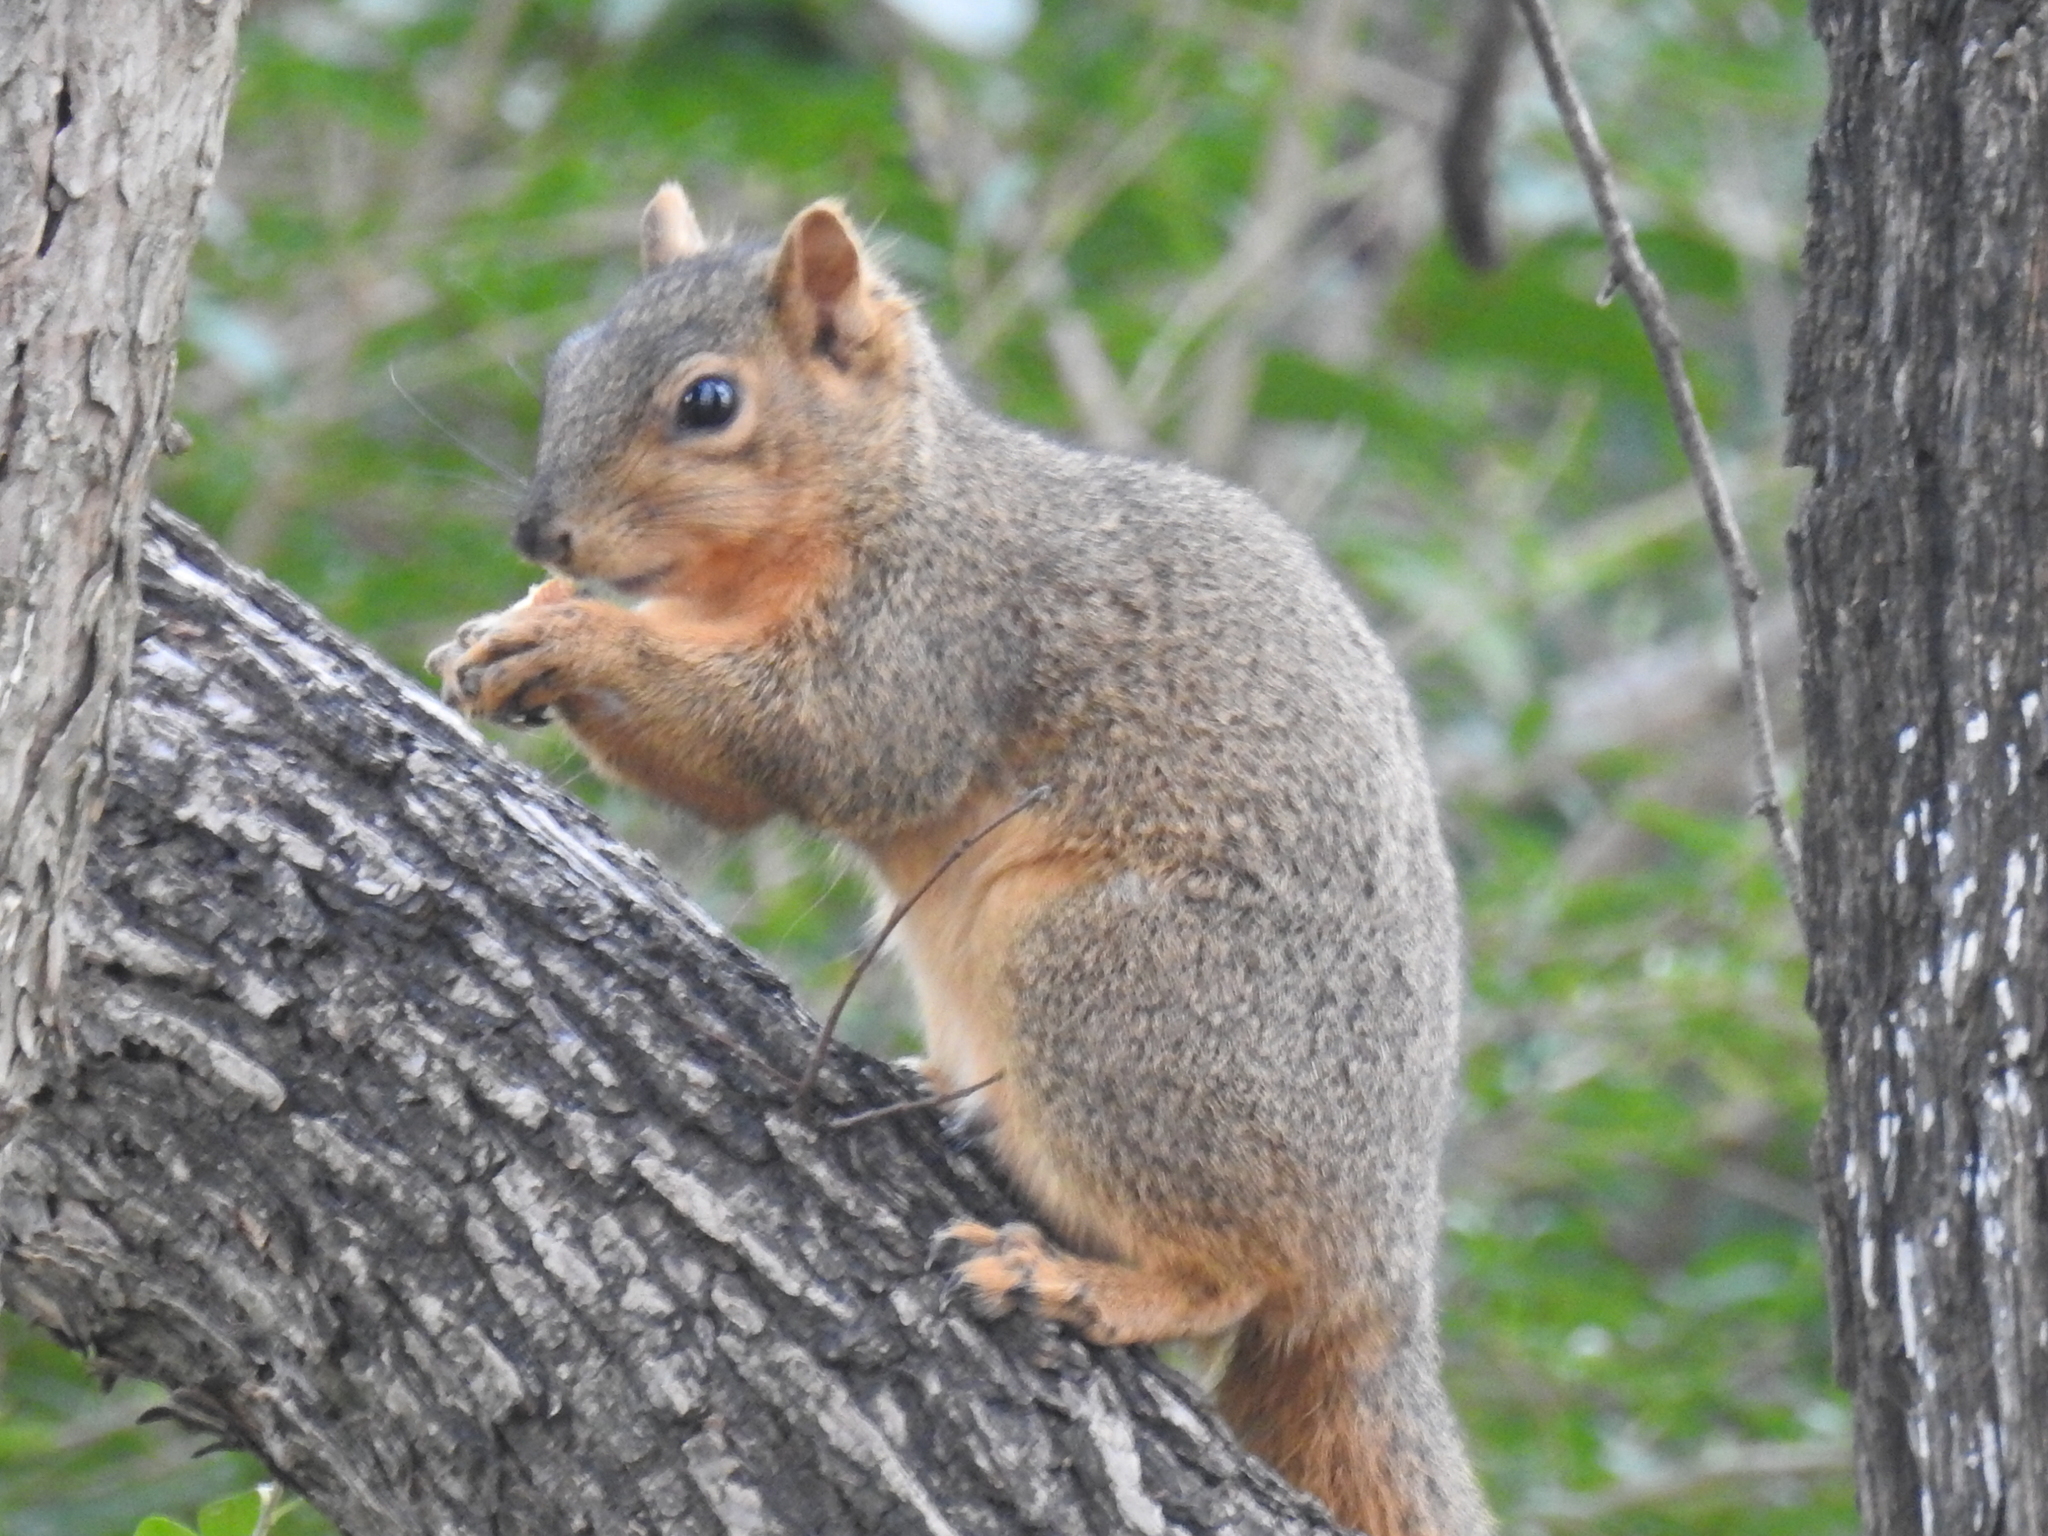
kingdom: Animalia
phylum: Chordata
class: Mammalia
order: Rodentia
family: Sciuridae
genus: Sciurus
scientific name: Sciurus niger
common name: Fox squirrel
